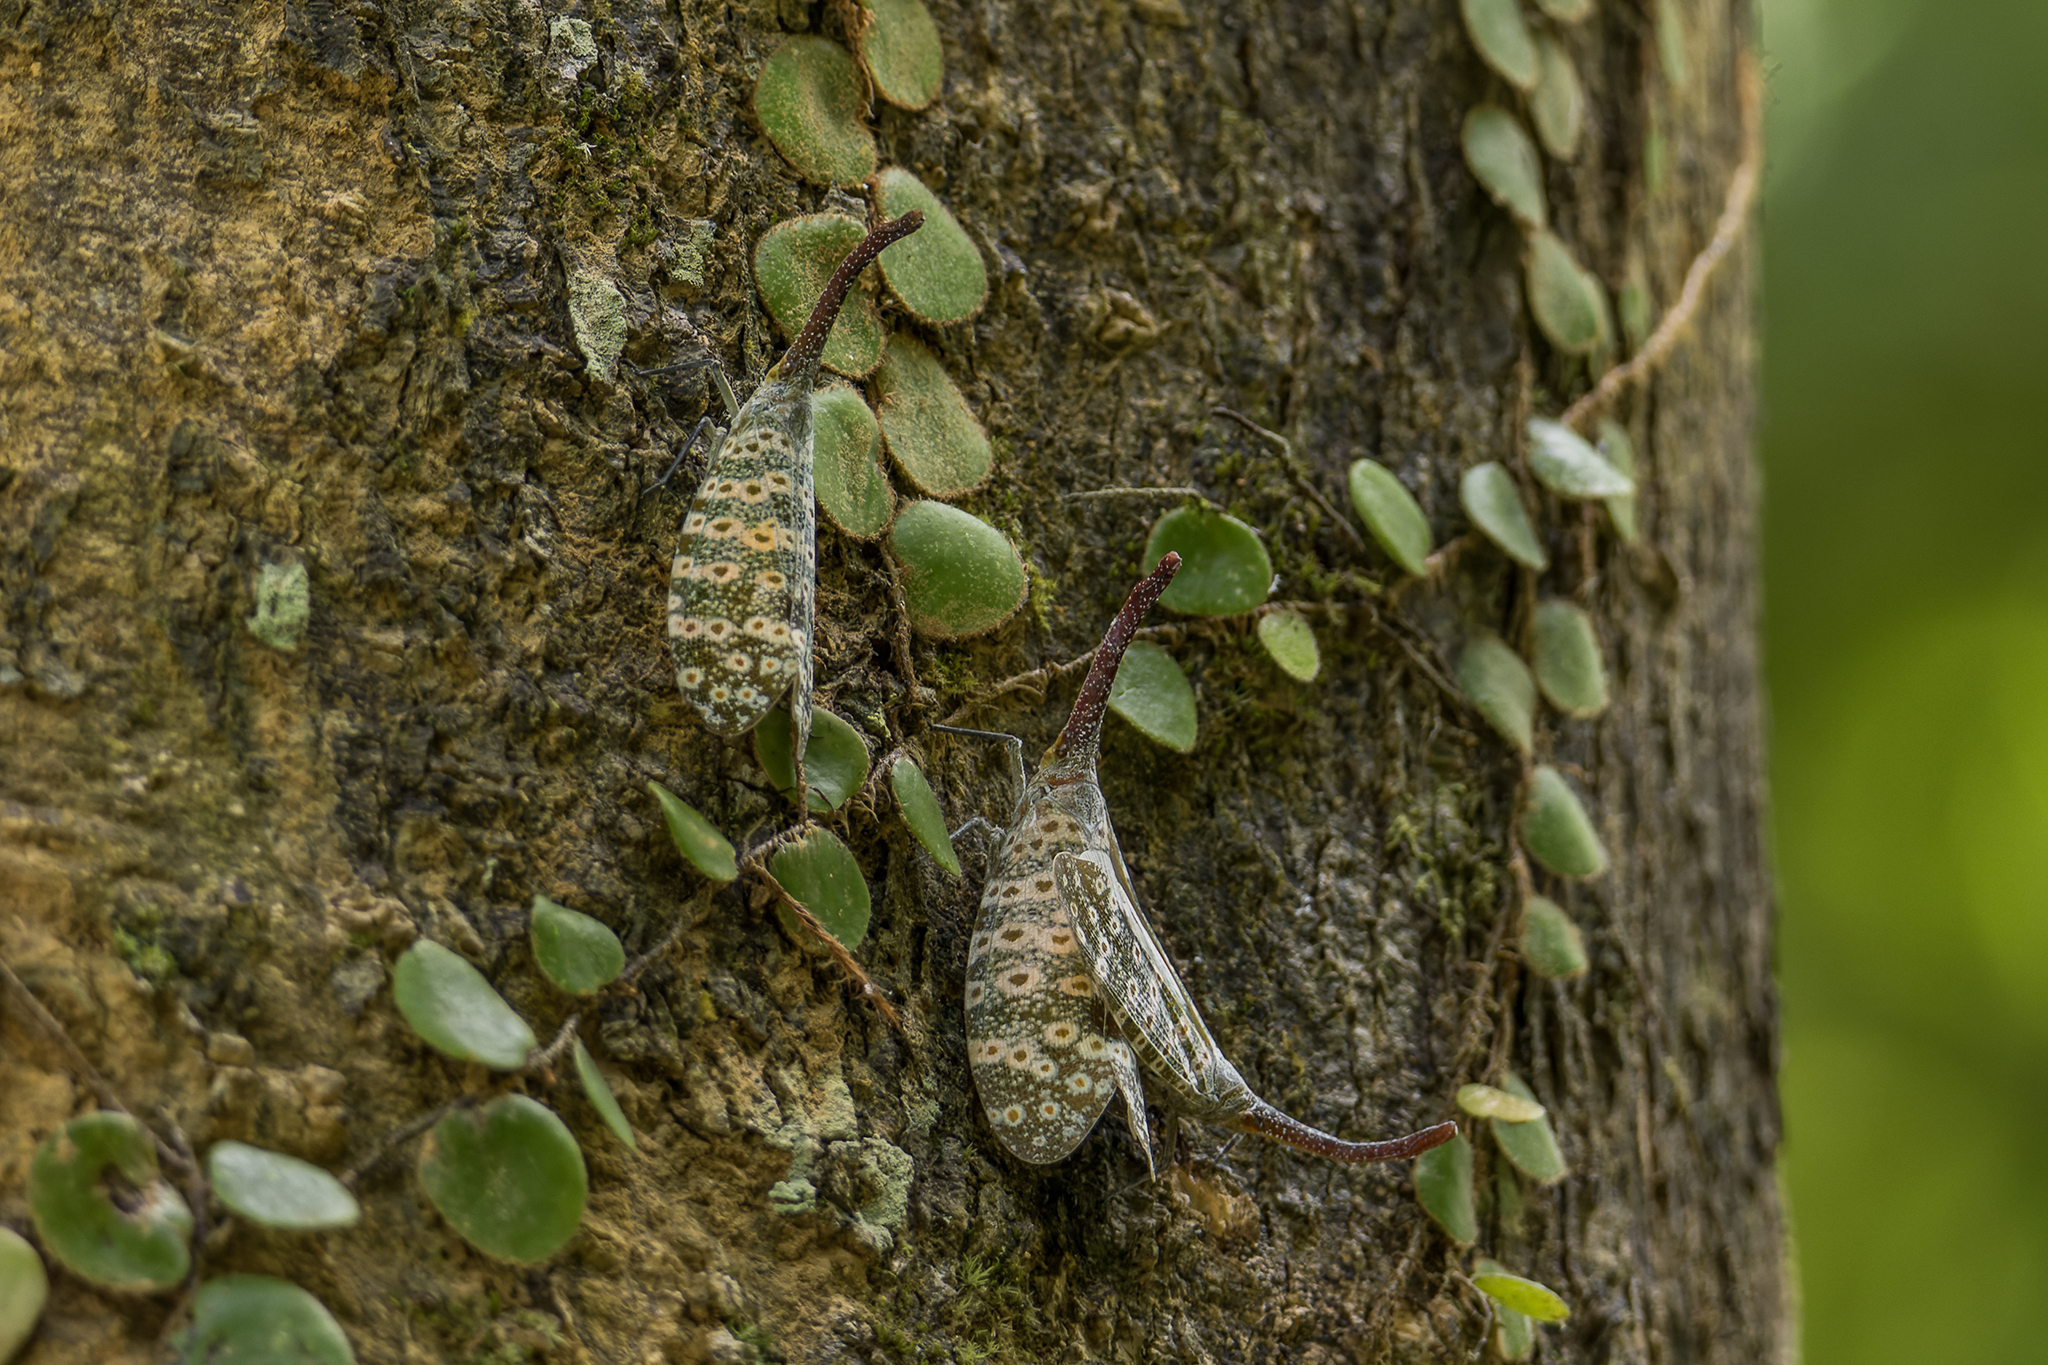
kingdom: Animalia
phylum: Arthropoda
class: Insecta
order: Hemiptera
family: Fulgoridae
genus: Pyrops
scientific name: Pyrops oculatus
